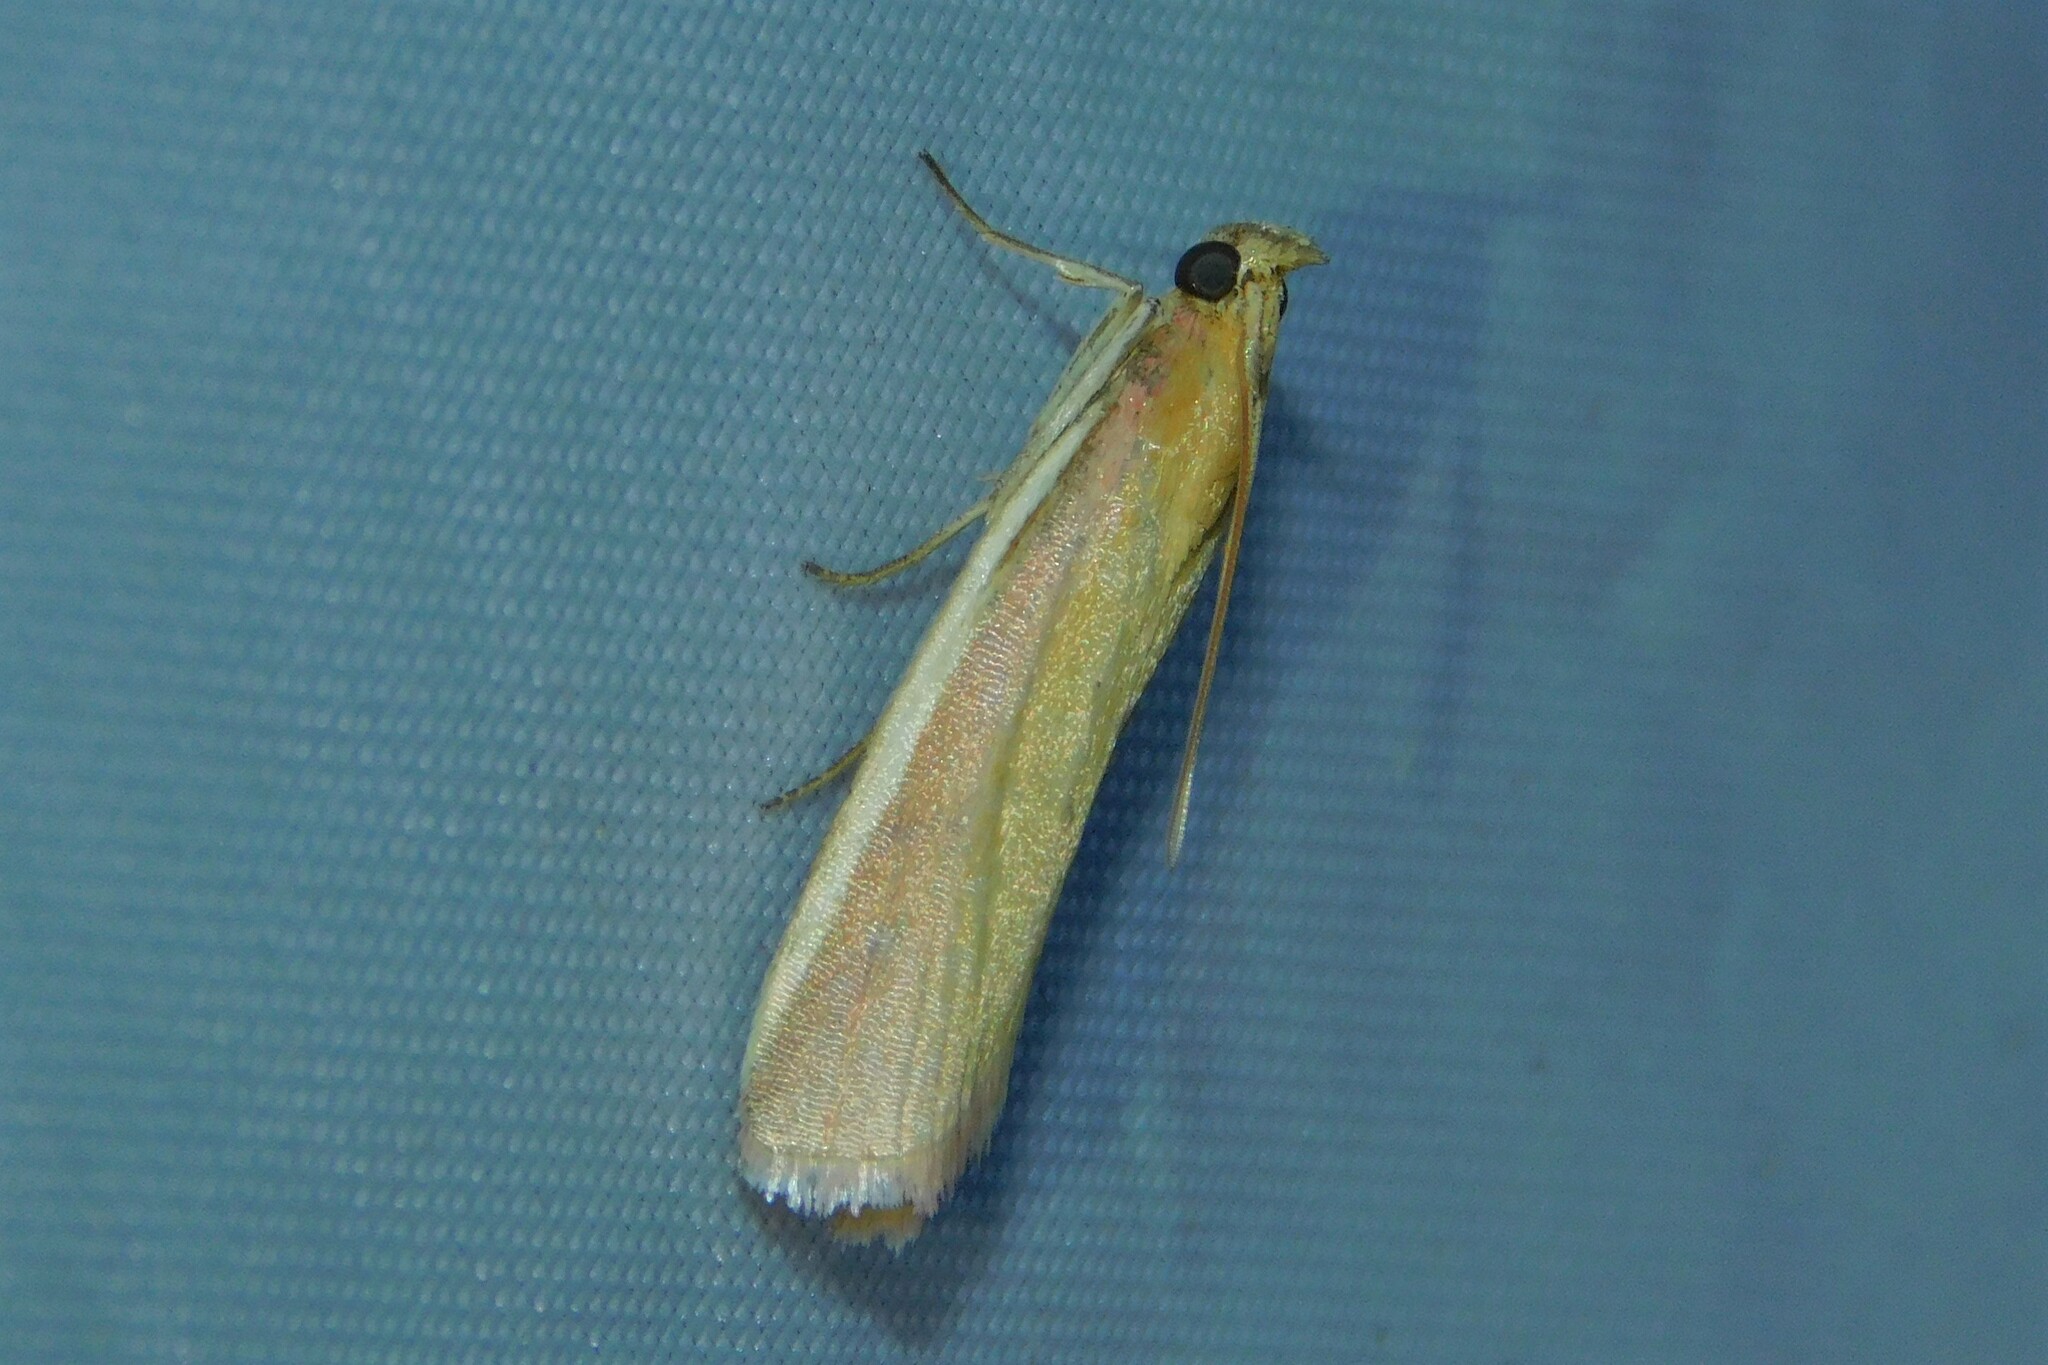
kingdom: Animalia
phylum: Arthropoda
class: Insecta
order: Lepidoptera
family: Pyralidae
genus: Oncocera
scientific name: Oncocera semirubella
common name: Rosy-striped knot-horn
